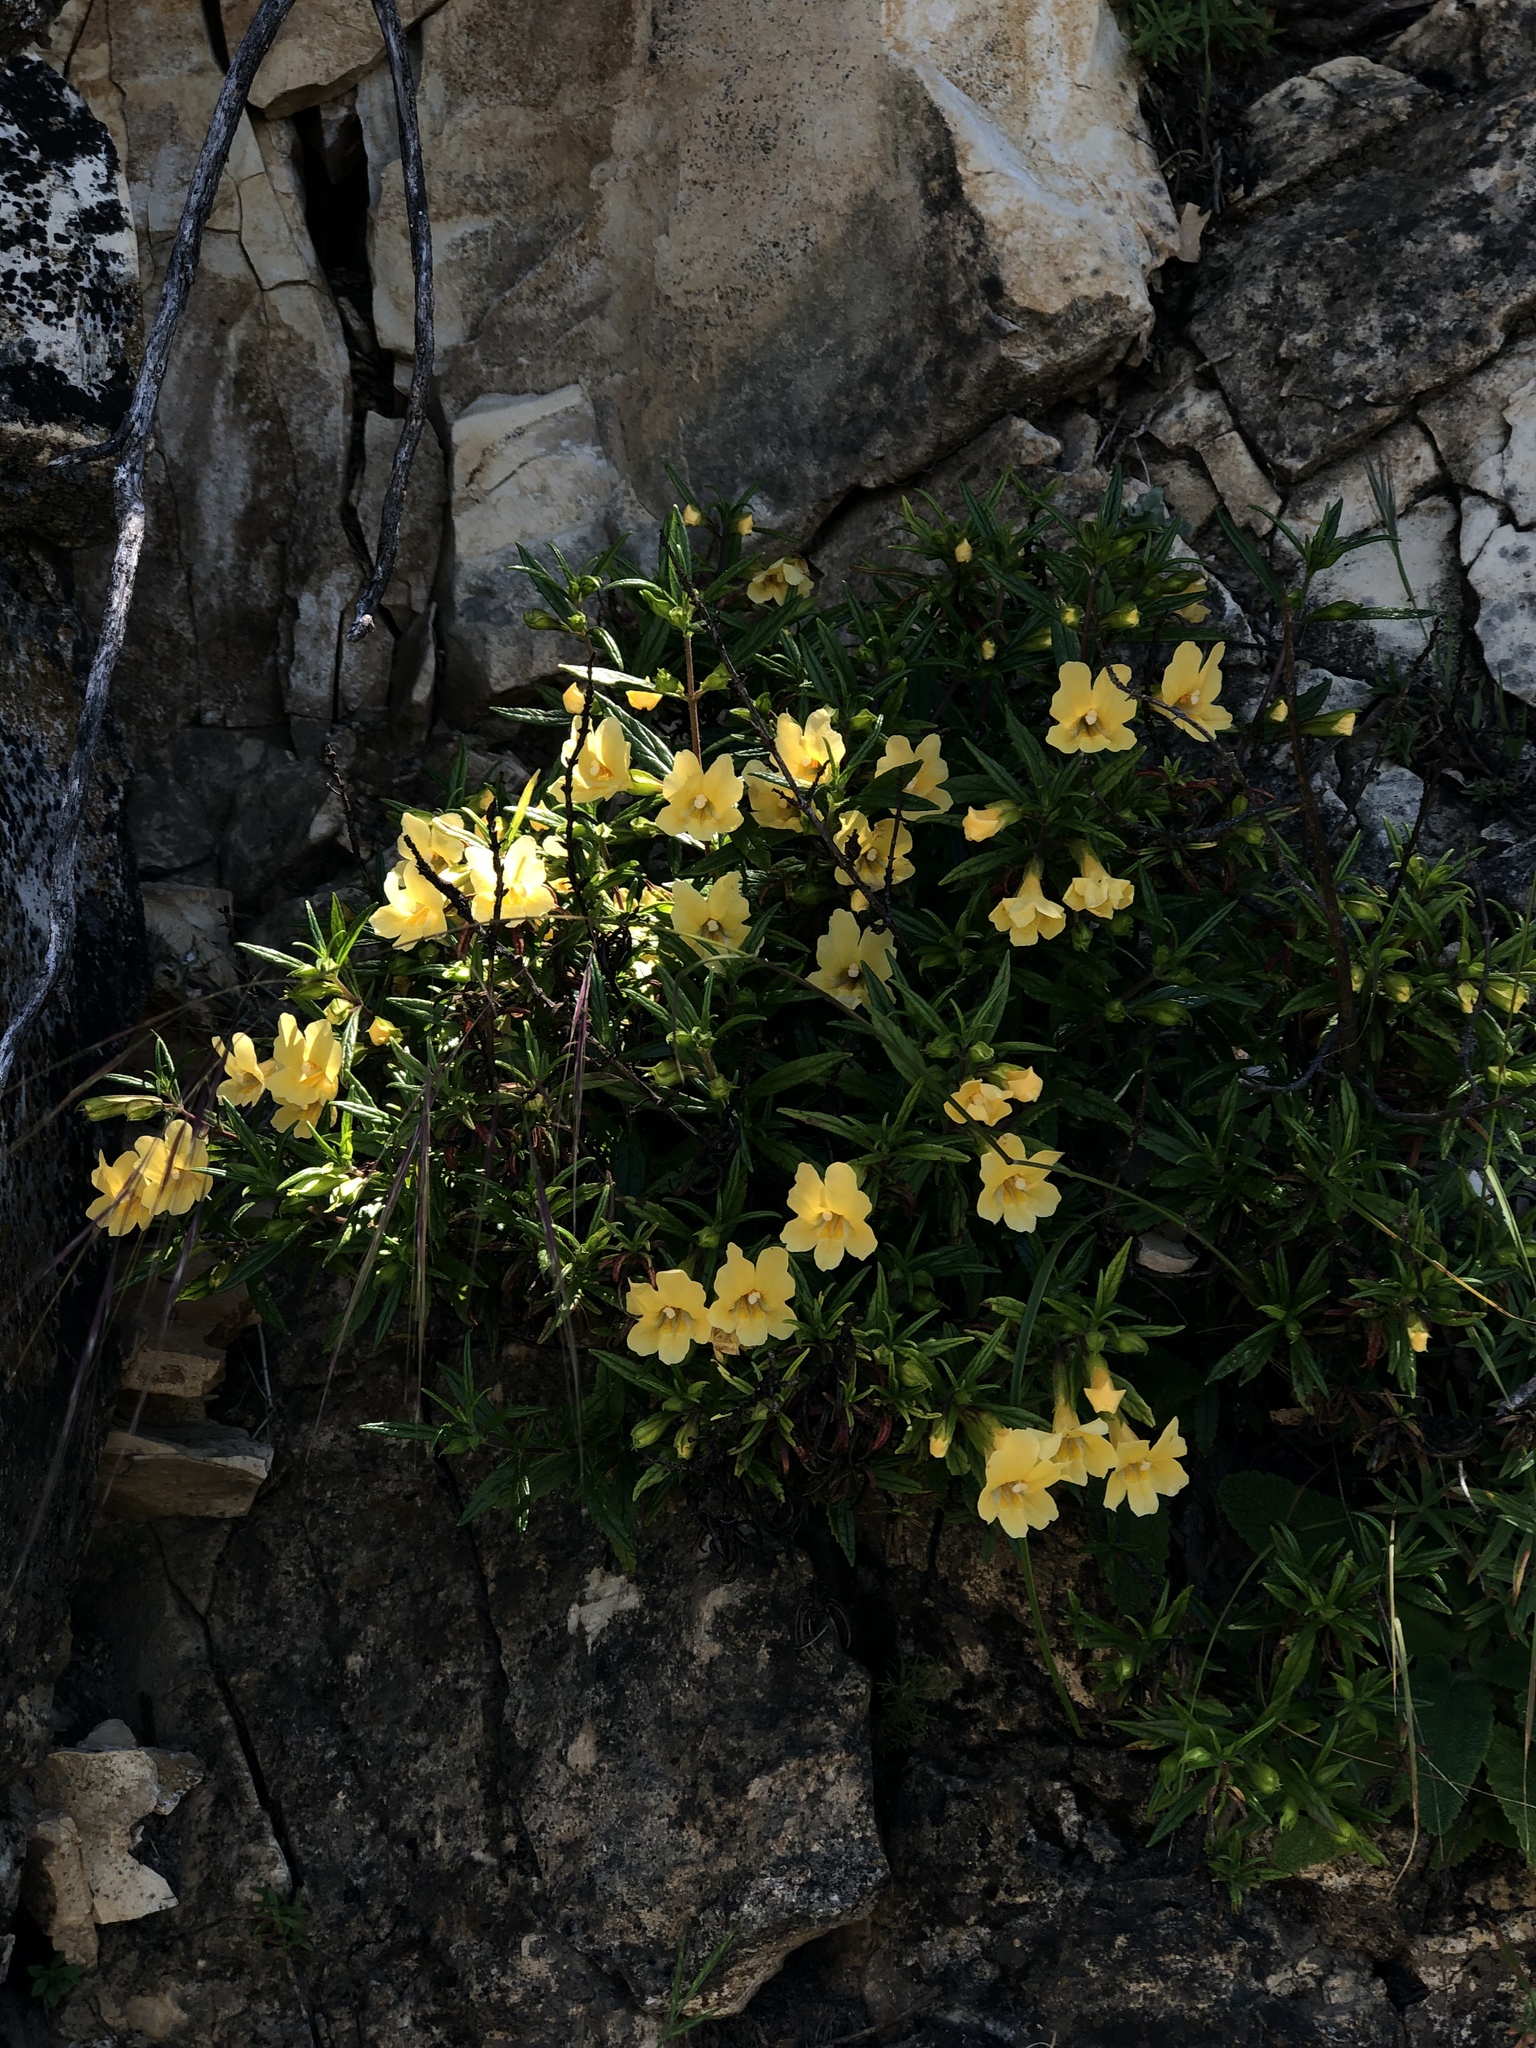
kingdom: Plantae
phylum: Tracheophyta
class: Magnoliopsida
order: Lamiales
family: Phrymaceae
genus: Diplacus
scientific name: Diplacus aurantiacus
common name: Bush monkey-flower
